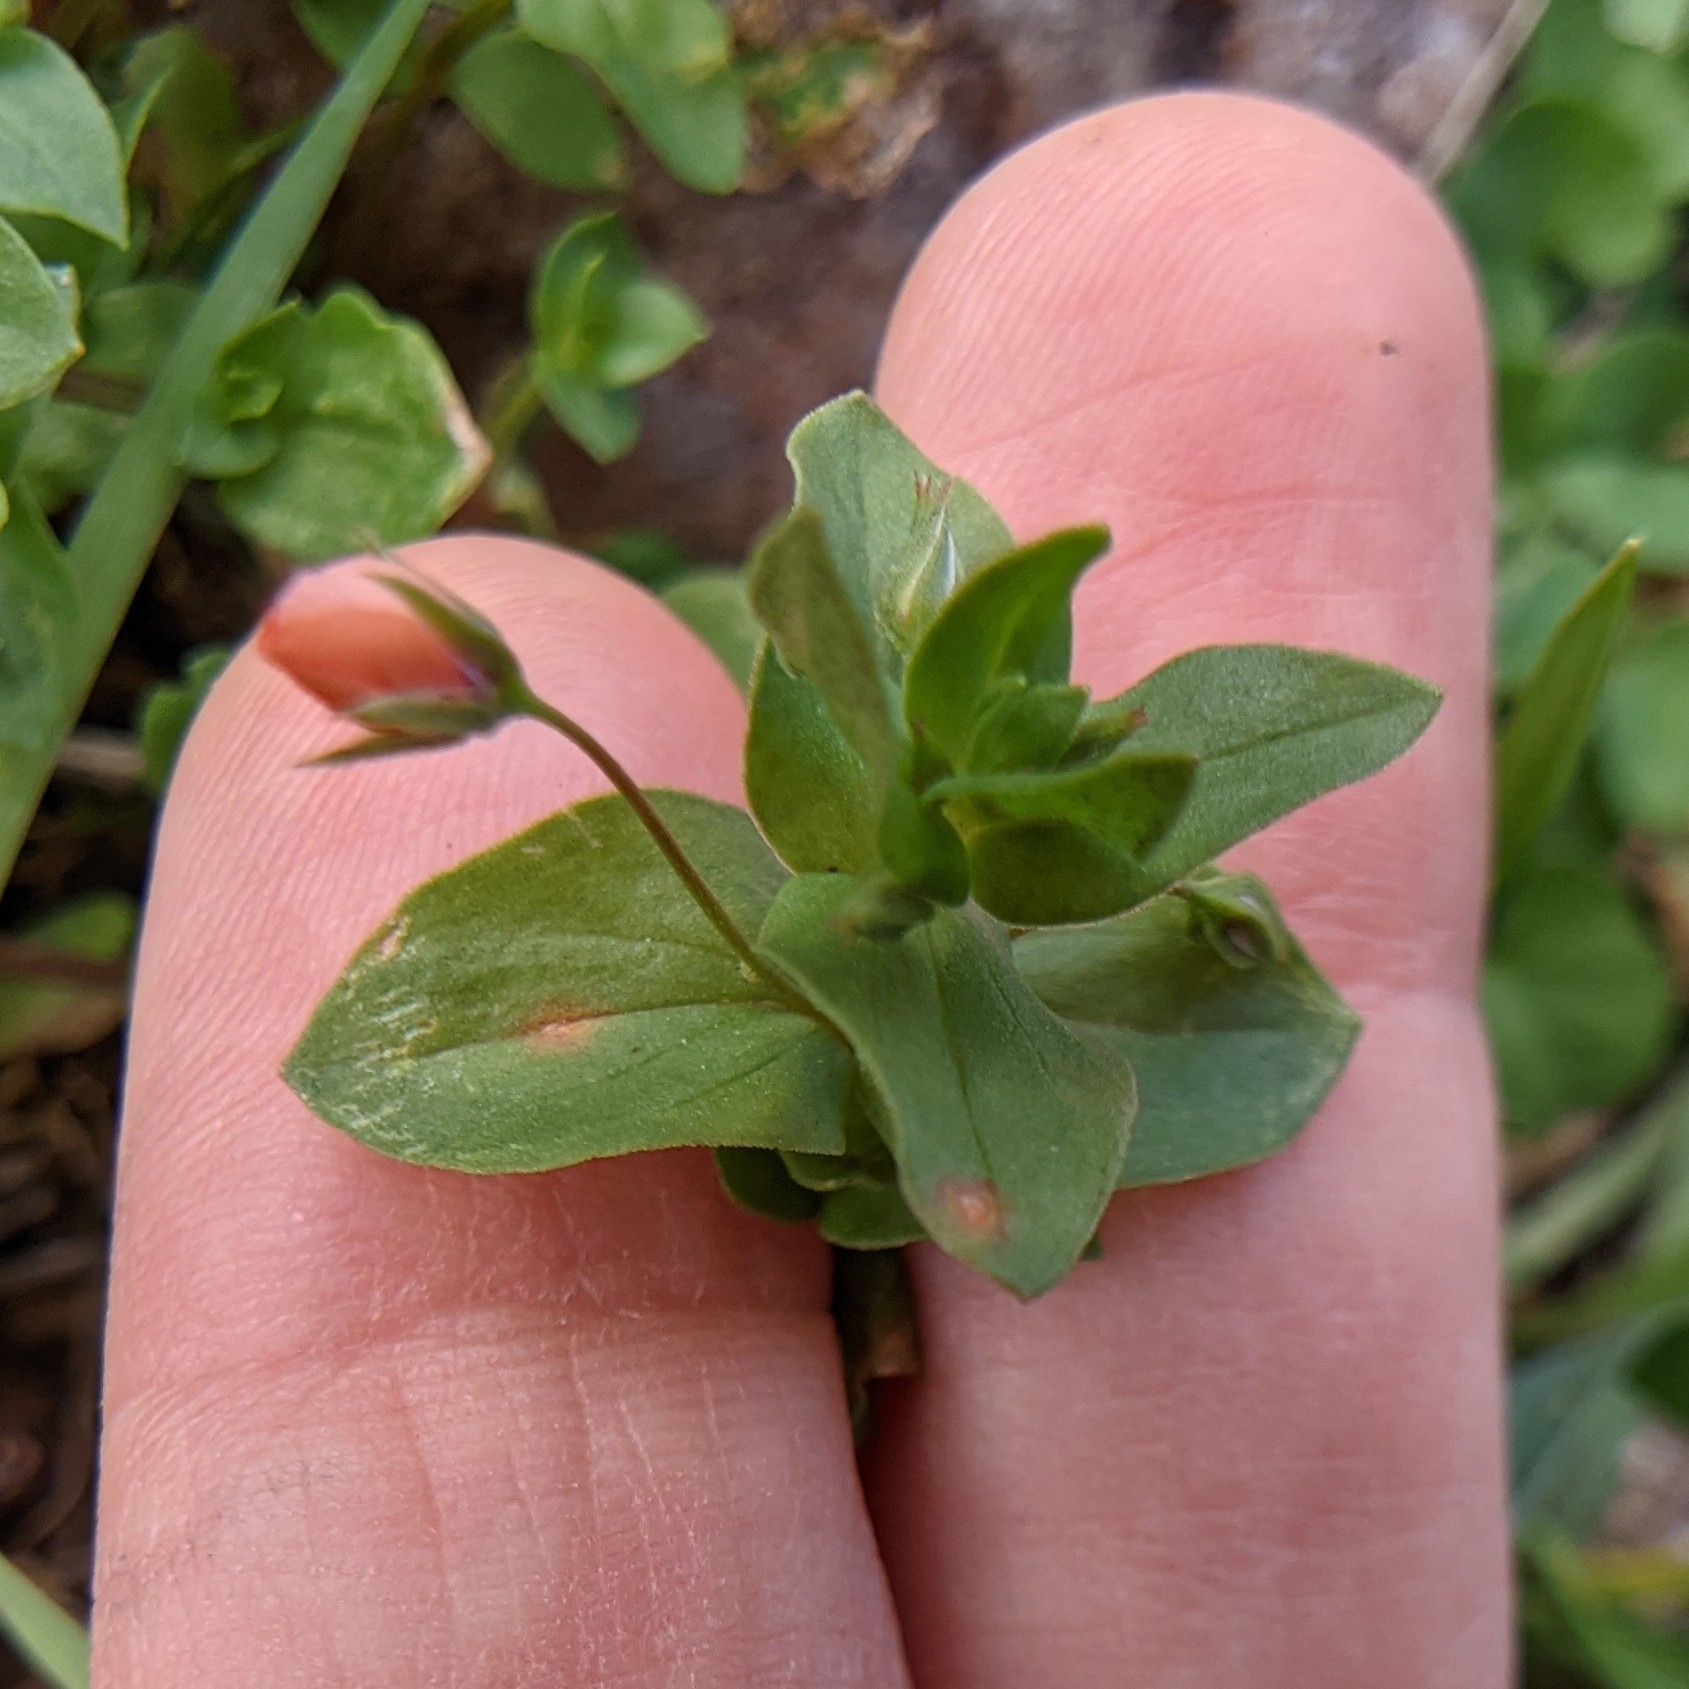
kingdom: Plantae
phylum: Tracheophyta
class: Magnoliopsida
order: Ericales
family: Primulaceae
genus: Lysimachia
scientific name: Lysimachia arvensis
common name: Scarlet pimpernel
